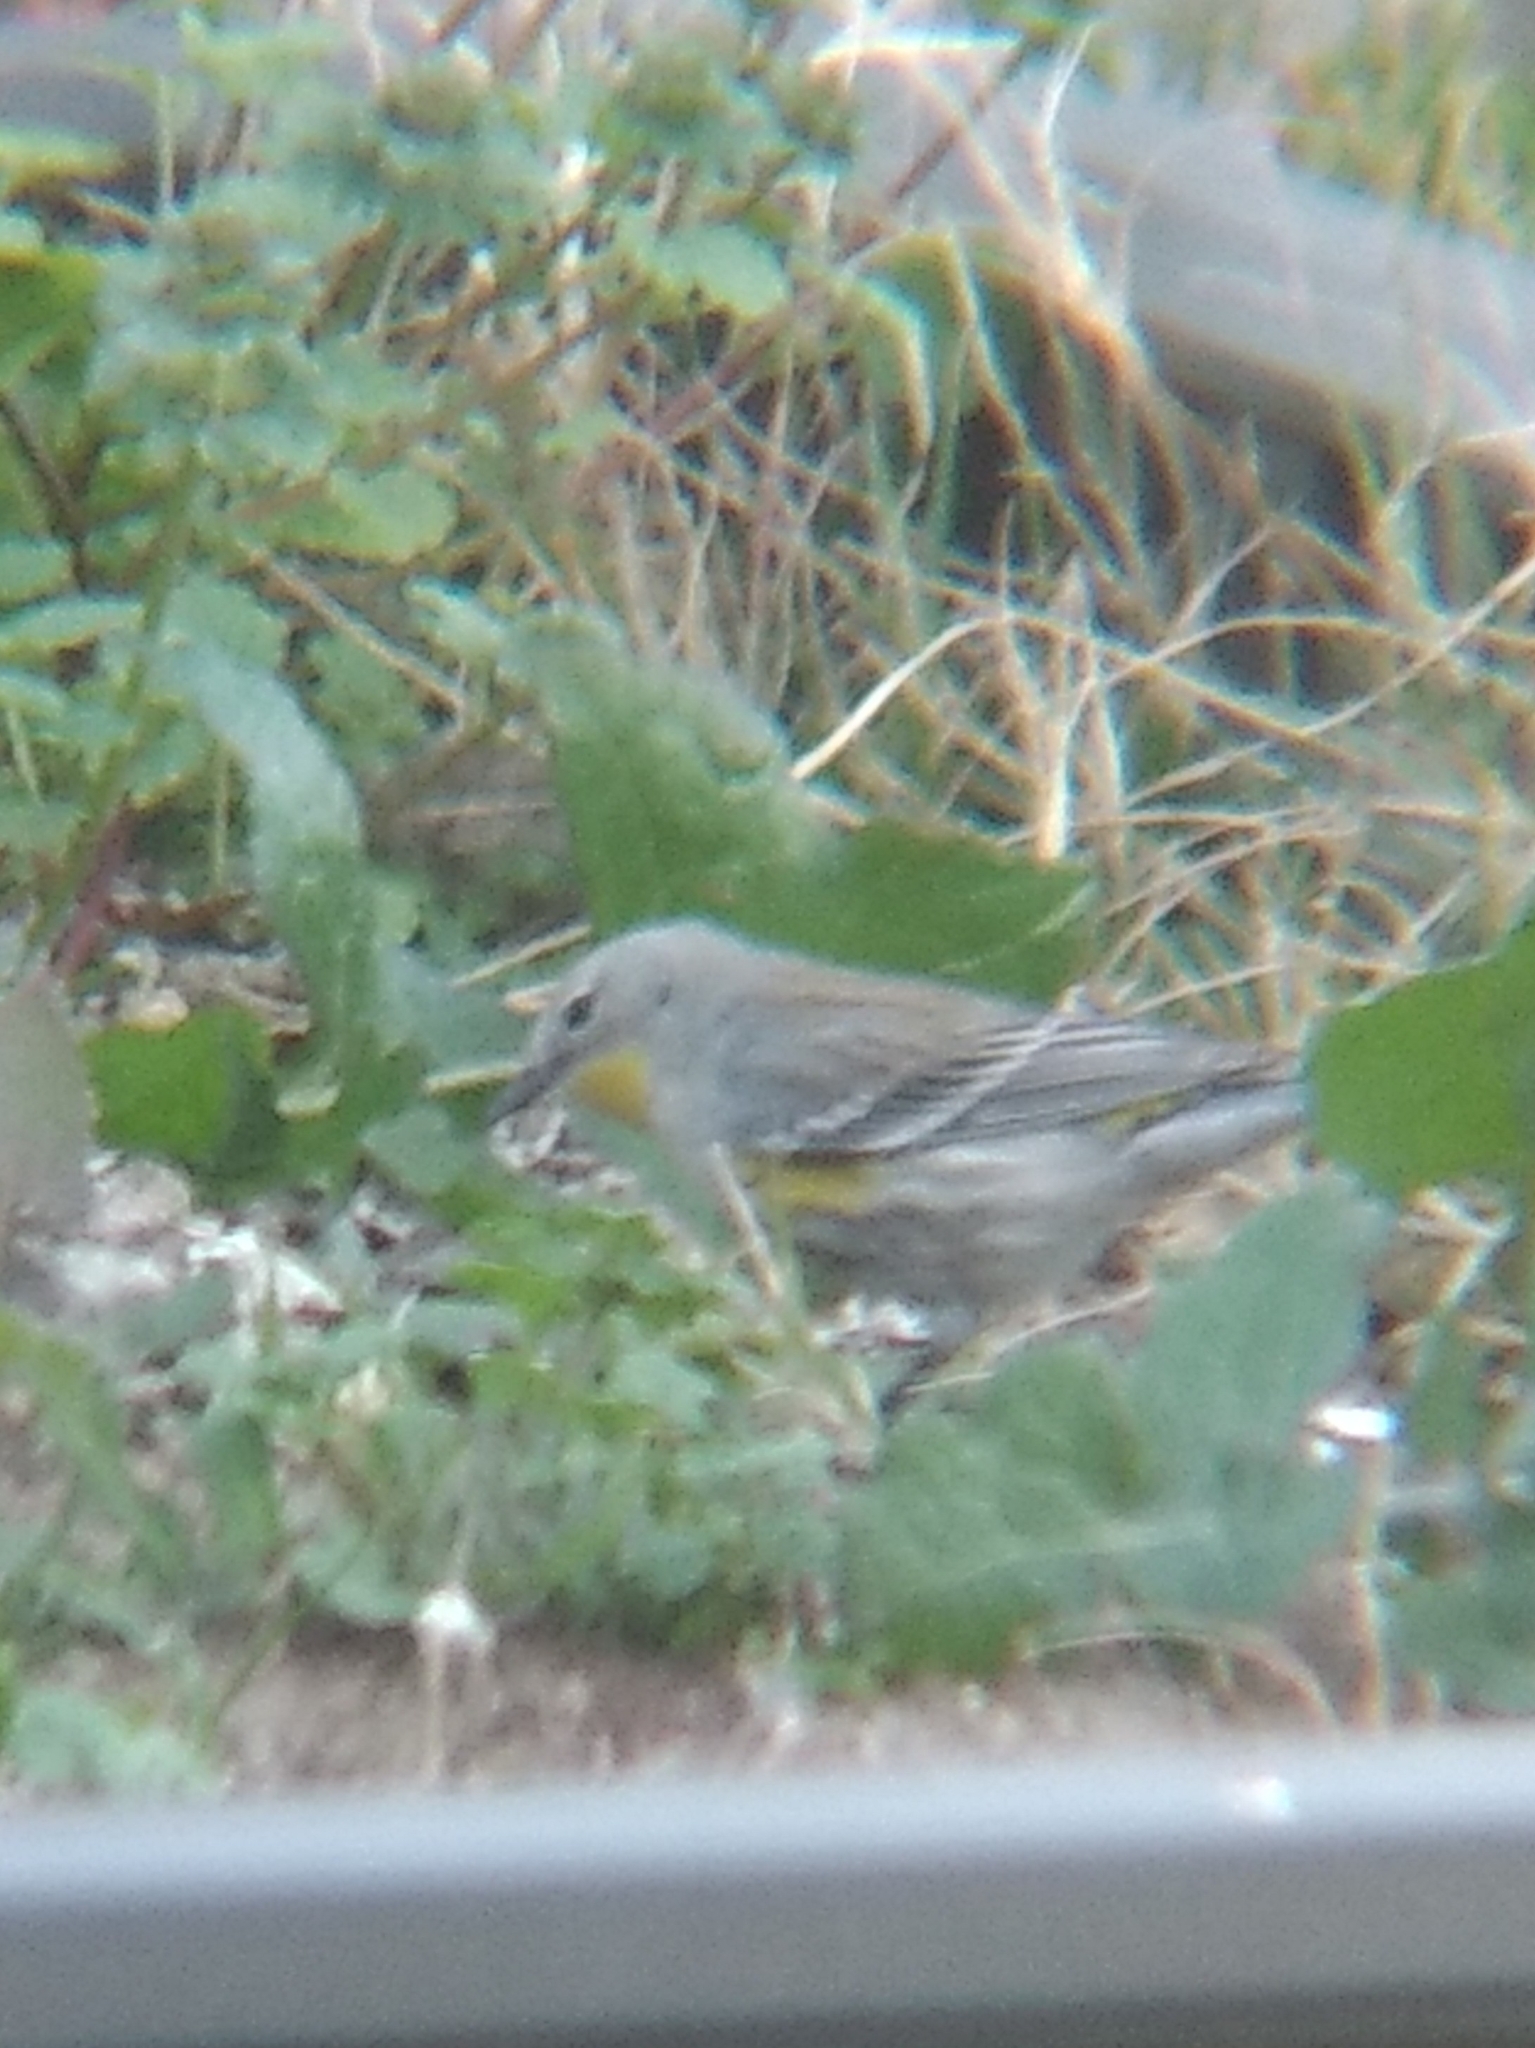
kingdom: Animalia
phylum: Chordata
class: Aves
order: Passeriformes
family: Parulidae
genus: Setophaga
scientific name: Setophaga coronata
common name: Myrtle warbler
